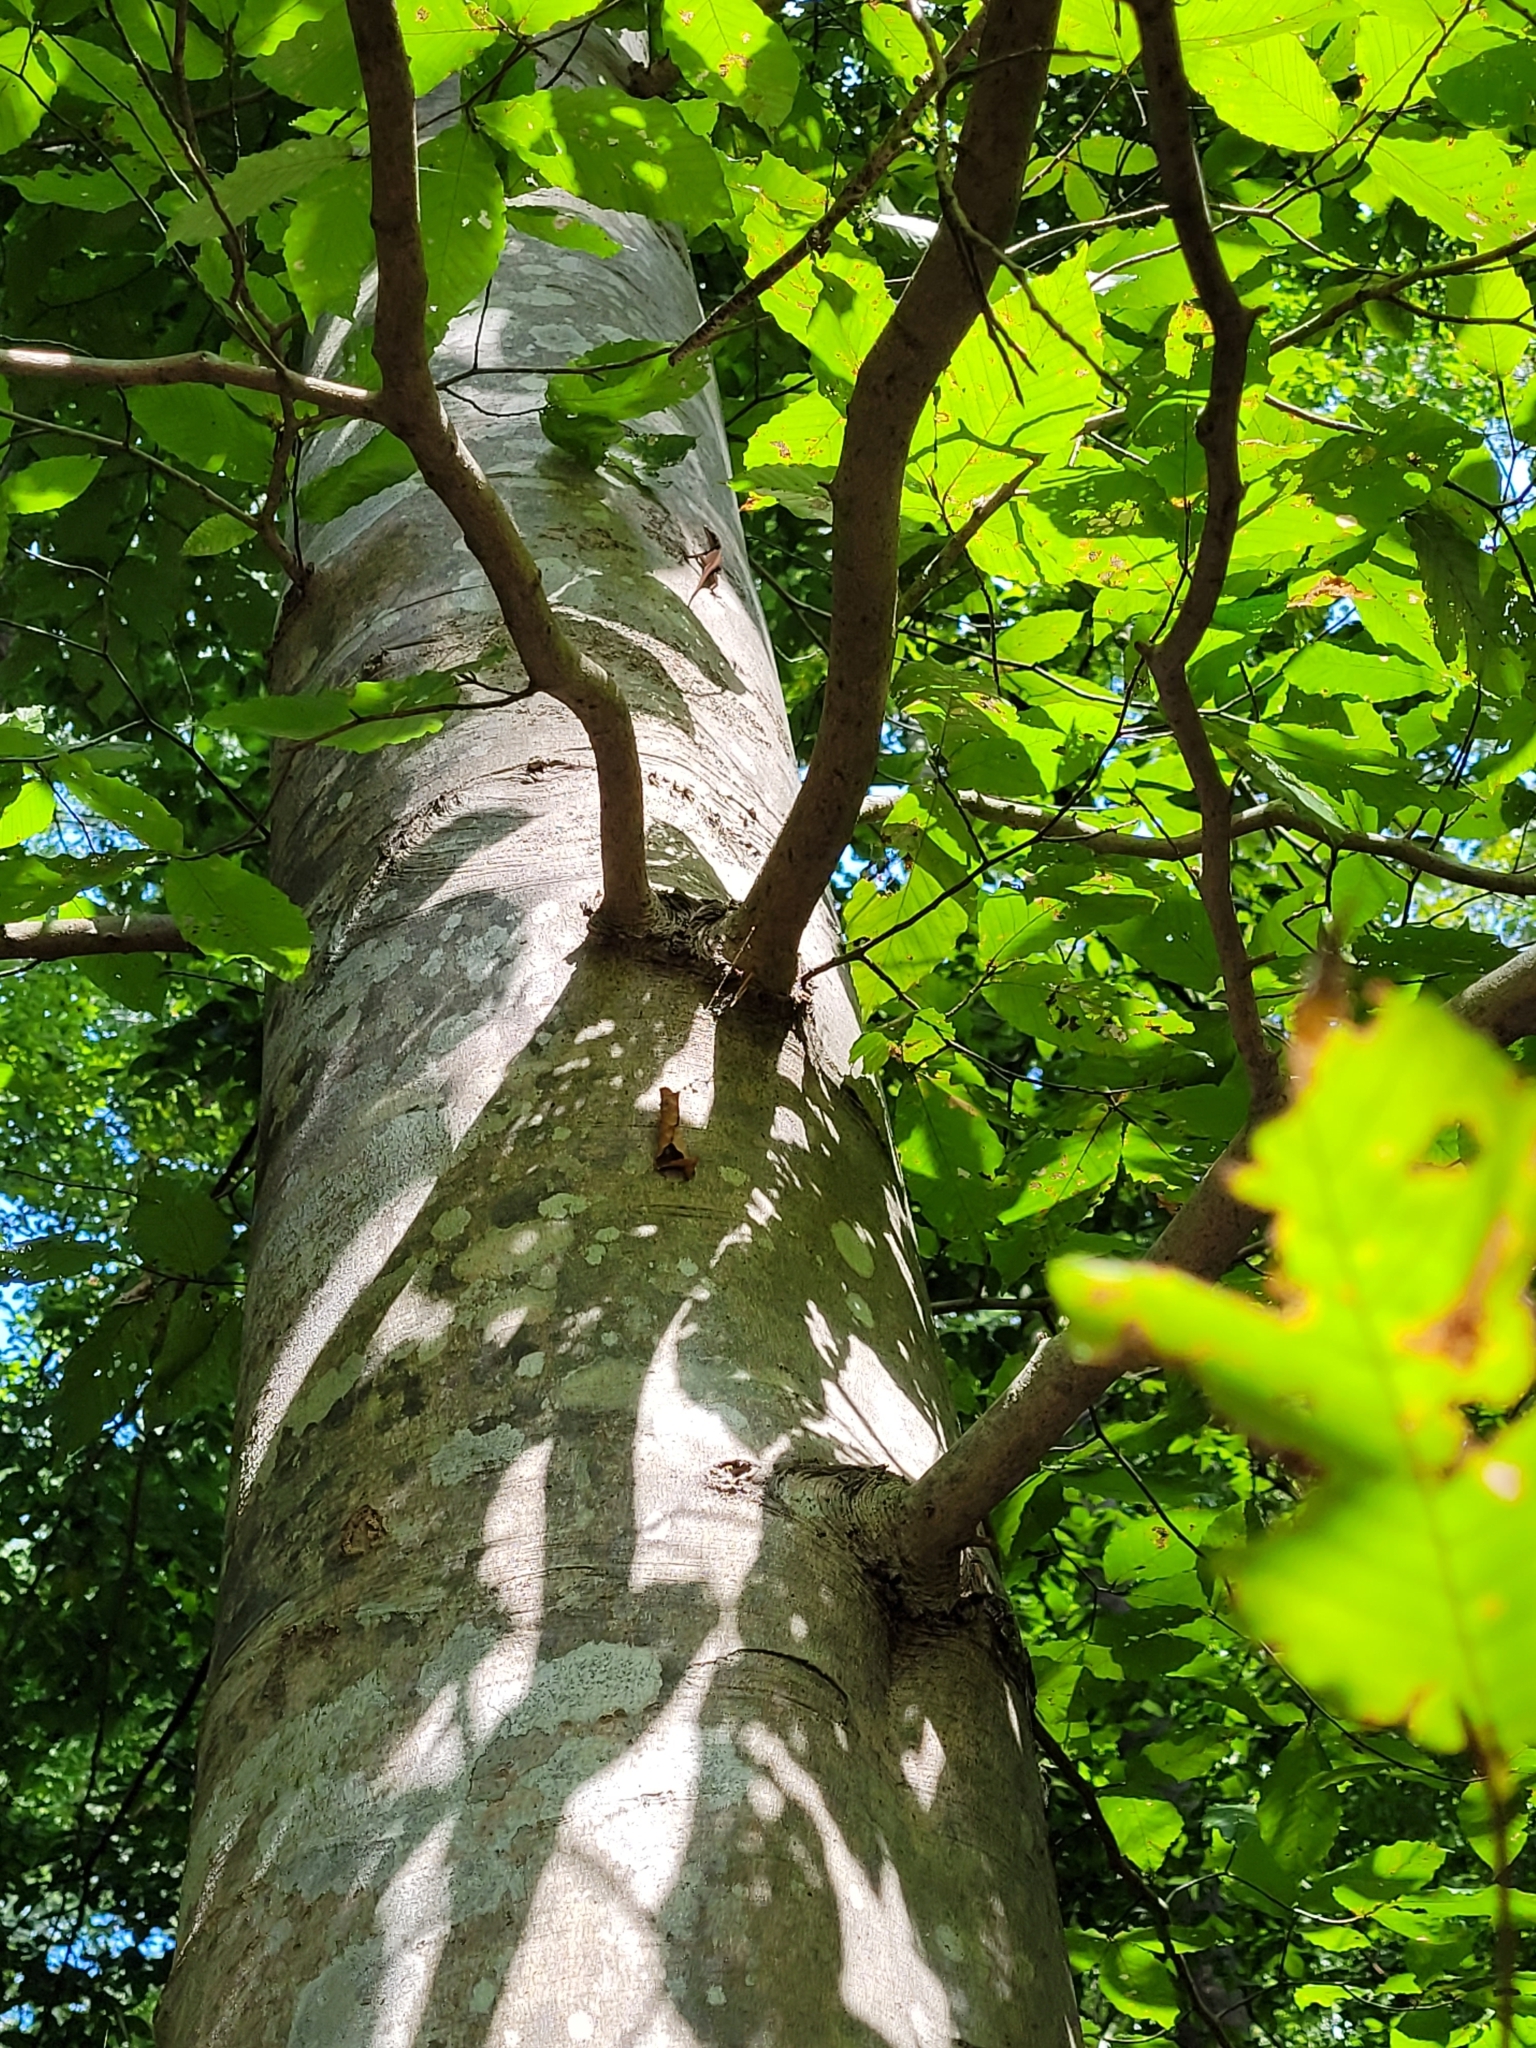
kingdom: Animalia
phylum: Chordata
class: Squamata
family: Dactyloidae
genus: Anolis
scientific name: Anolis carolinensis
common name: Green anole
